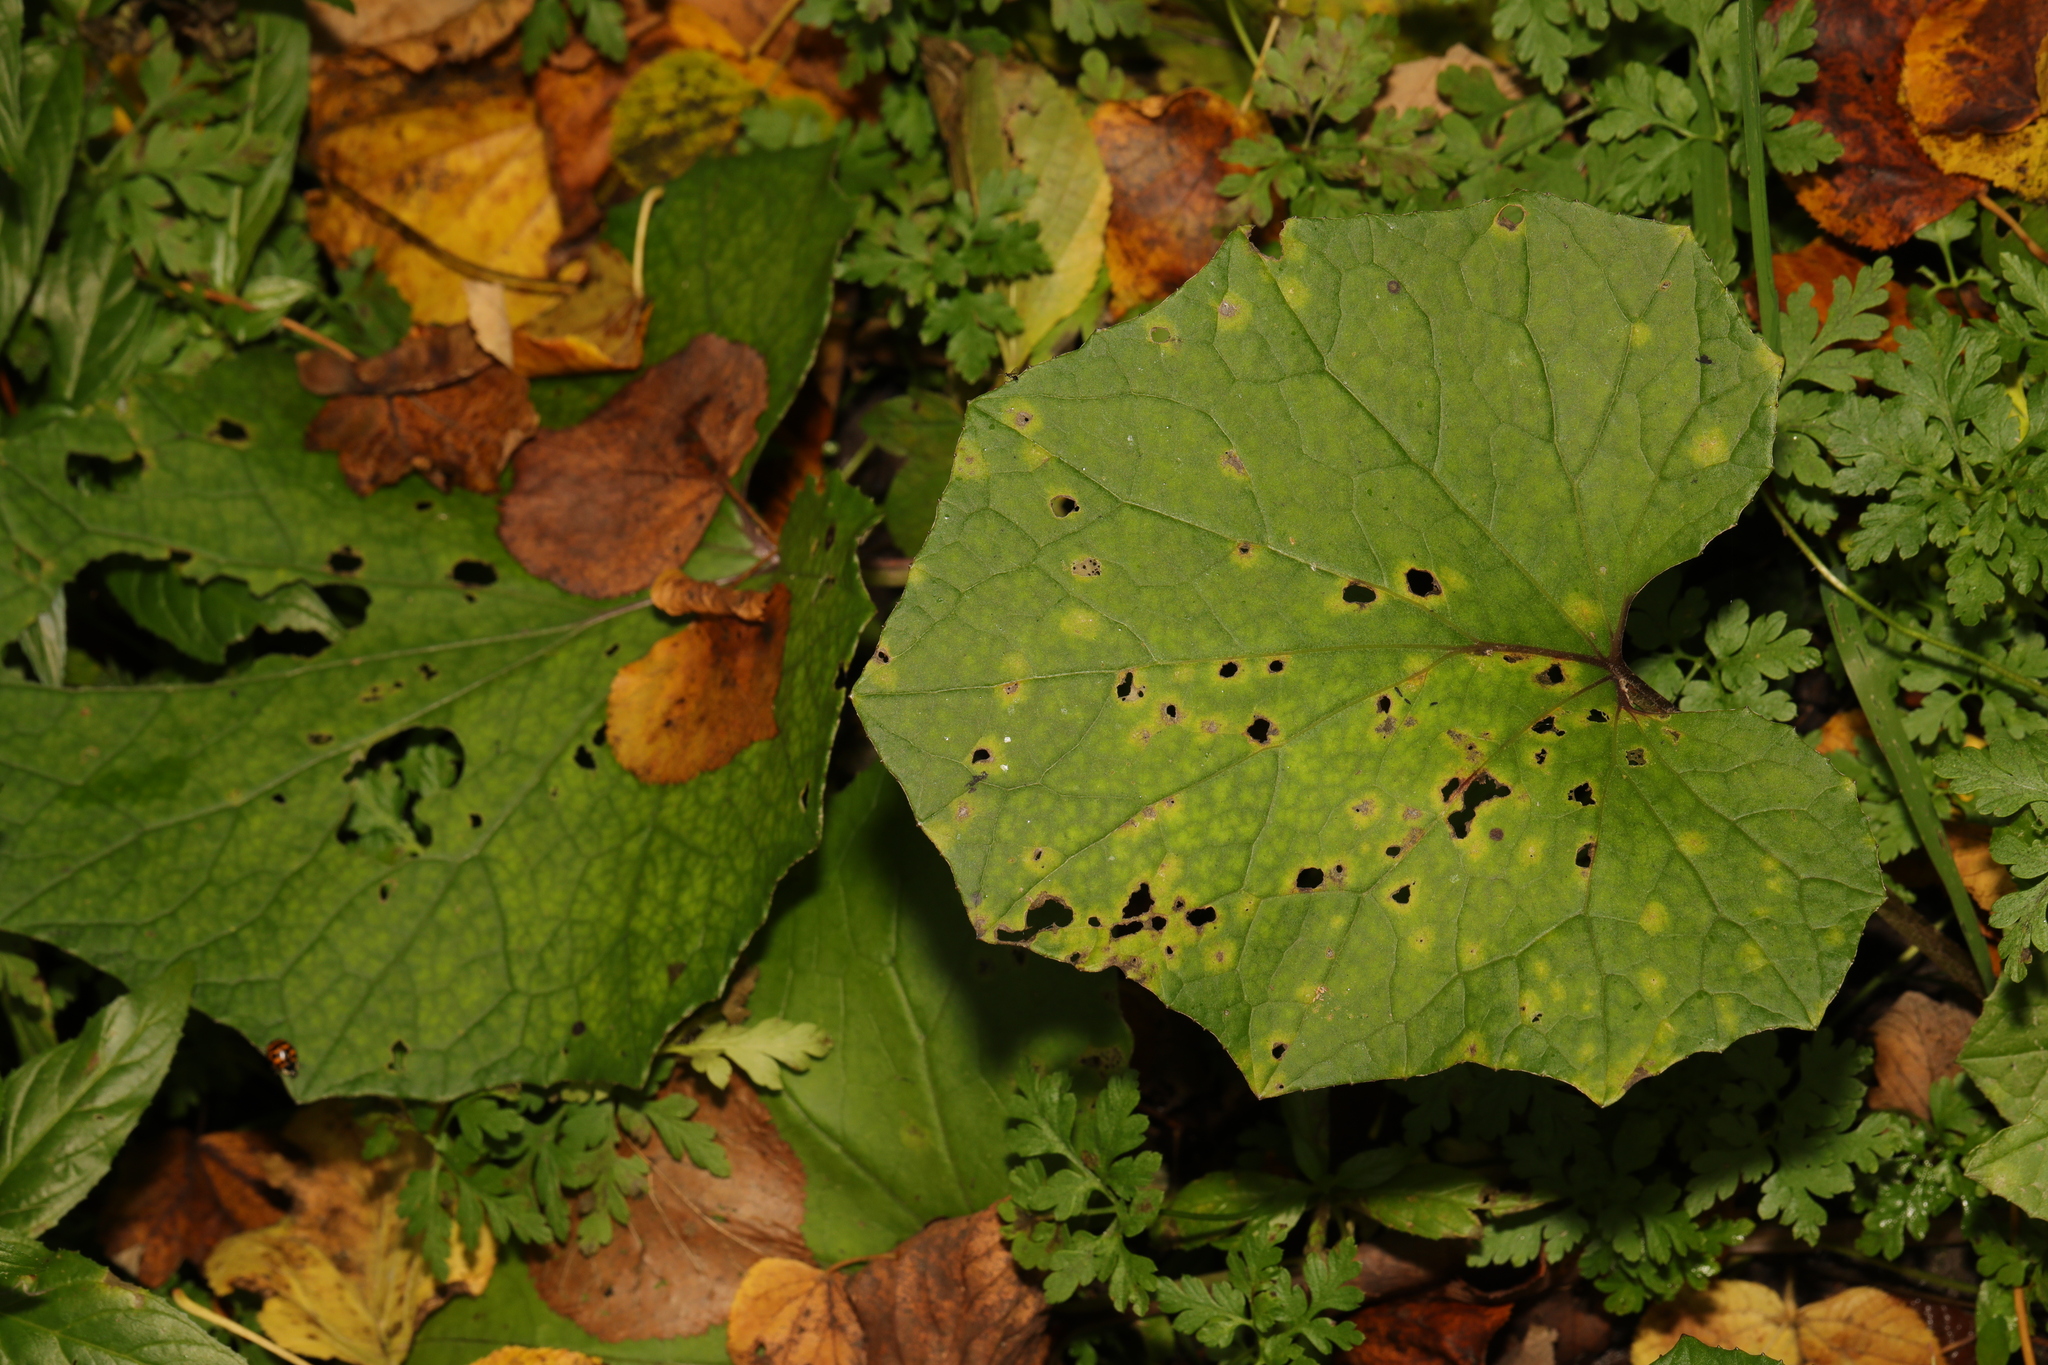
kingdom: Plantae
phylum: Tracheophyta
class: Magnoliopsida
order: Asterales
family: Asteraceae
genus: Tussilago
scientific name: Tussilago farfara
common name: Coltsfoot
